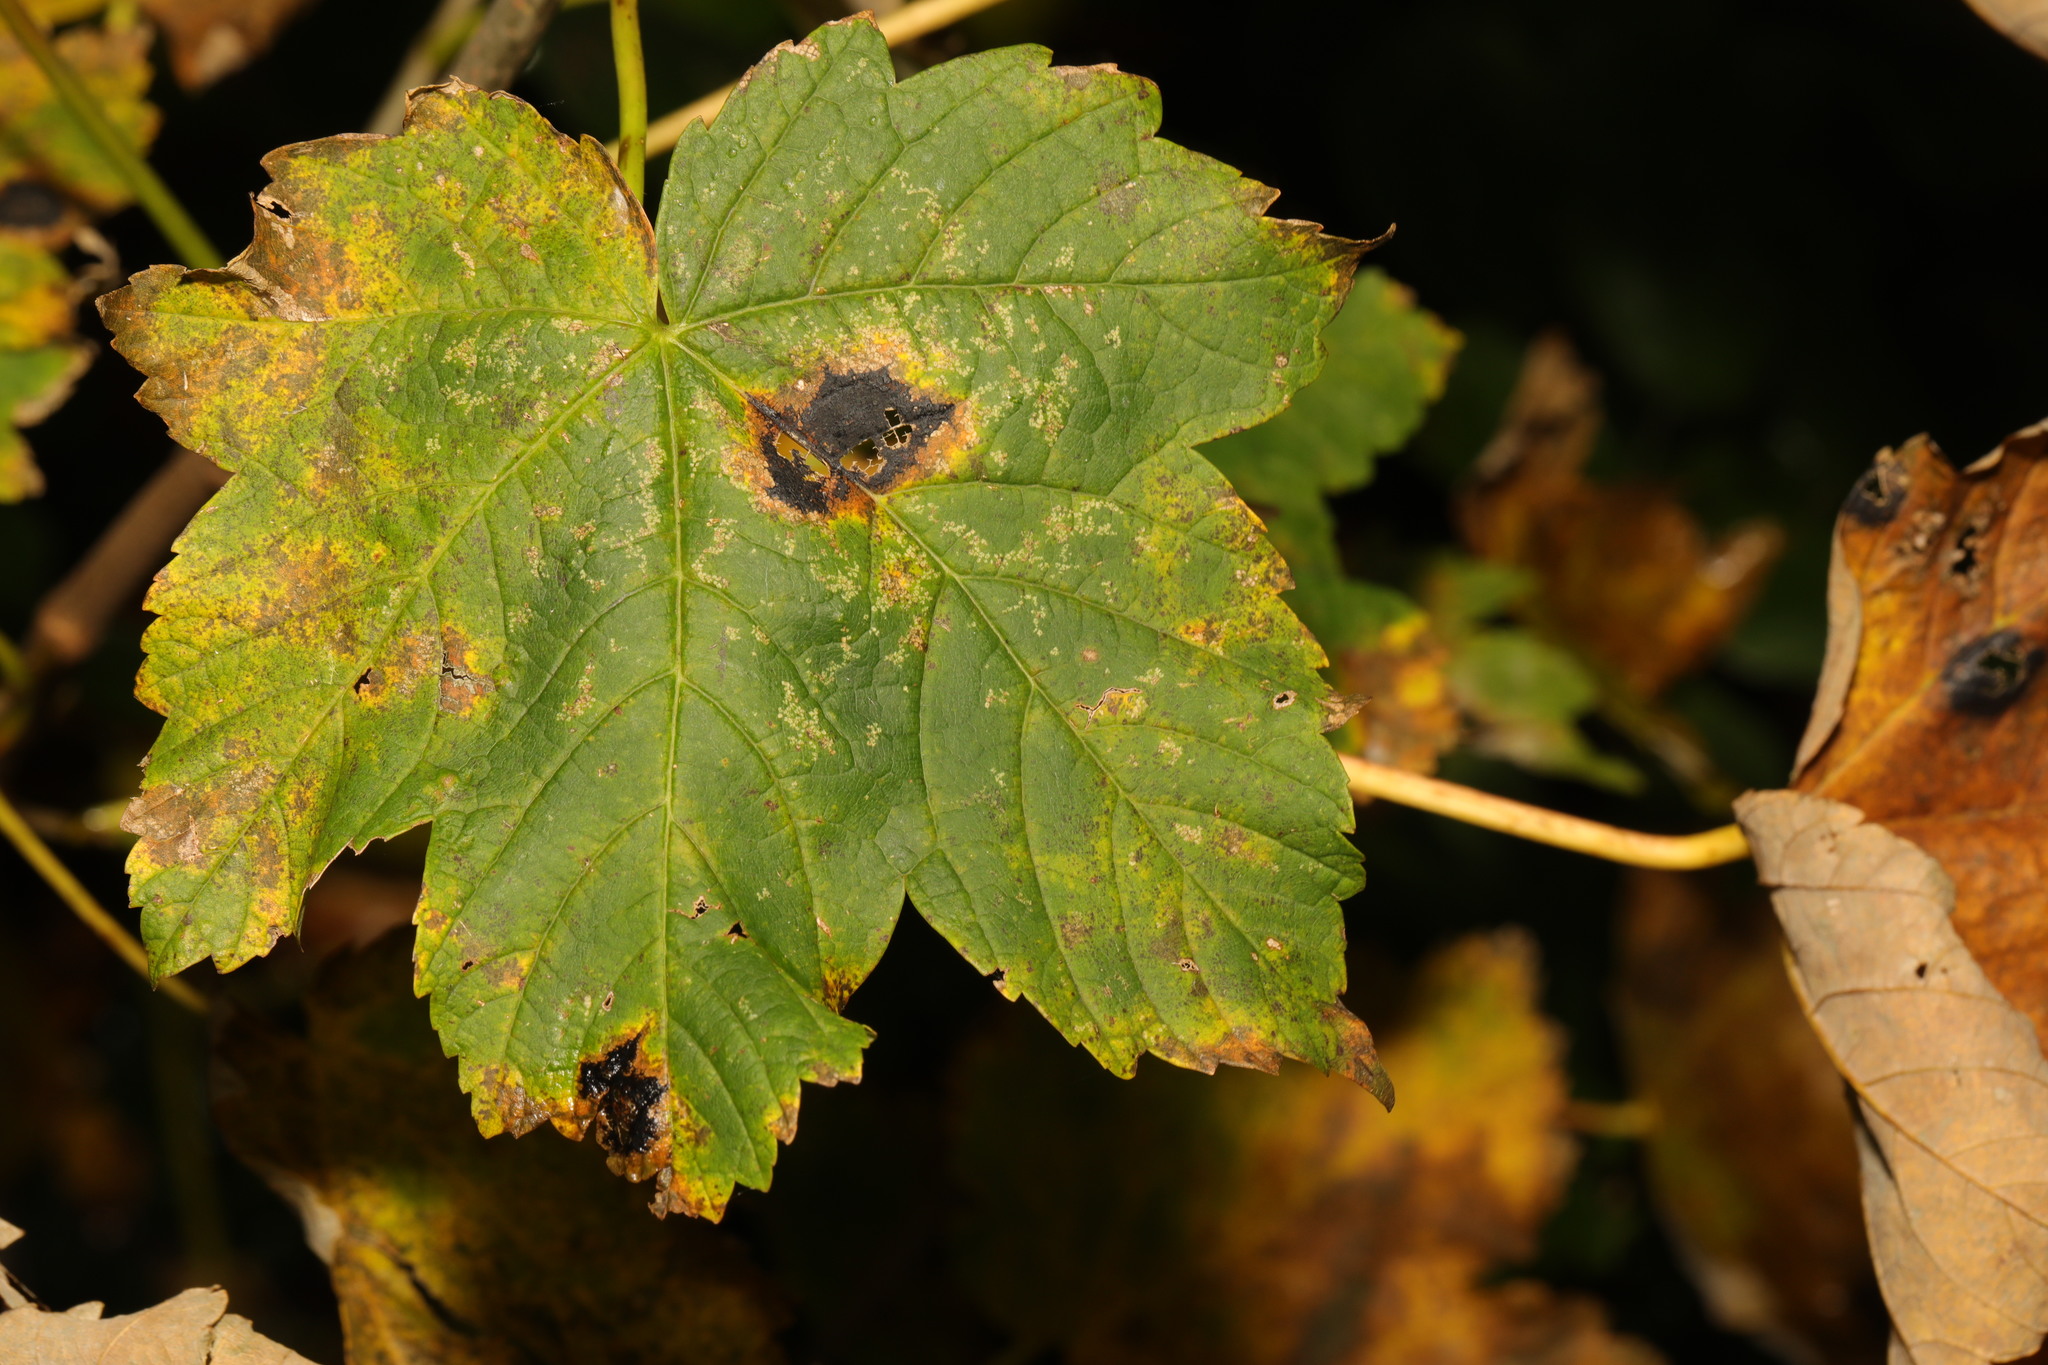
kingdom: Plantae
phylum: Tracheophyta
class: Magnoliopsida
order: Sapindales
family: Sapindaceae
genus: Acer
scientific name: Acer pseudoplatanus
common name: Sycamore
